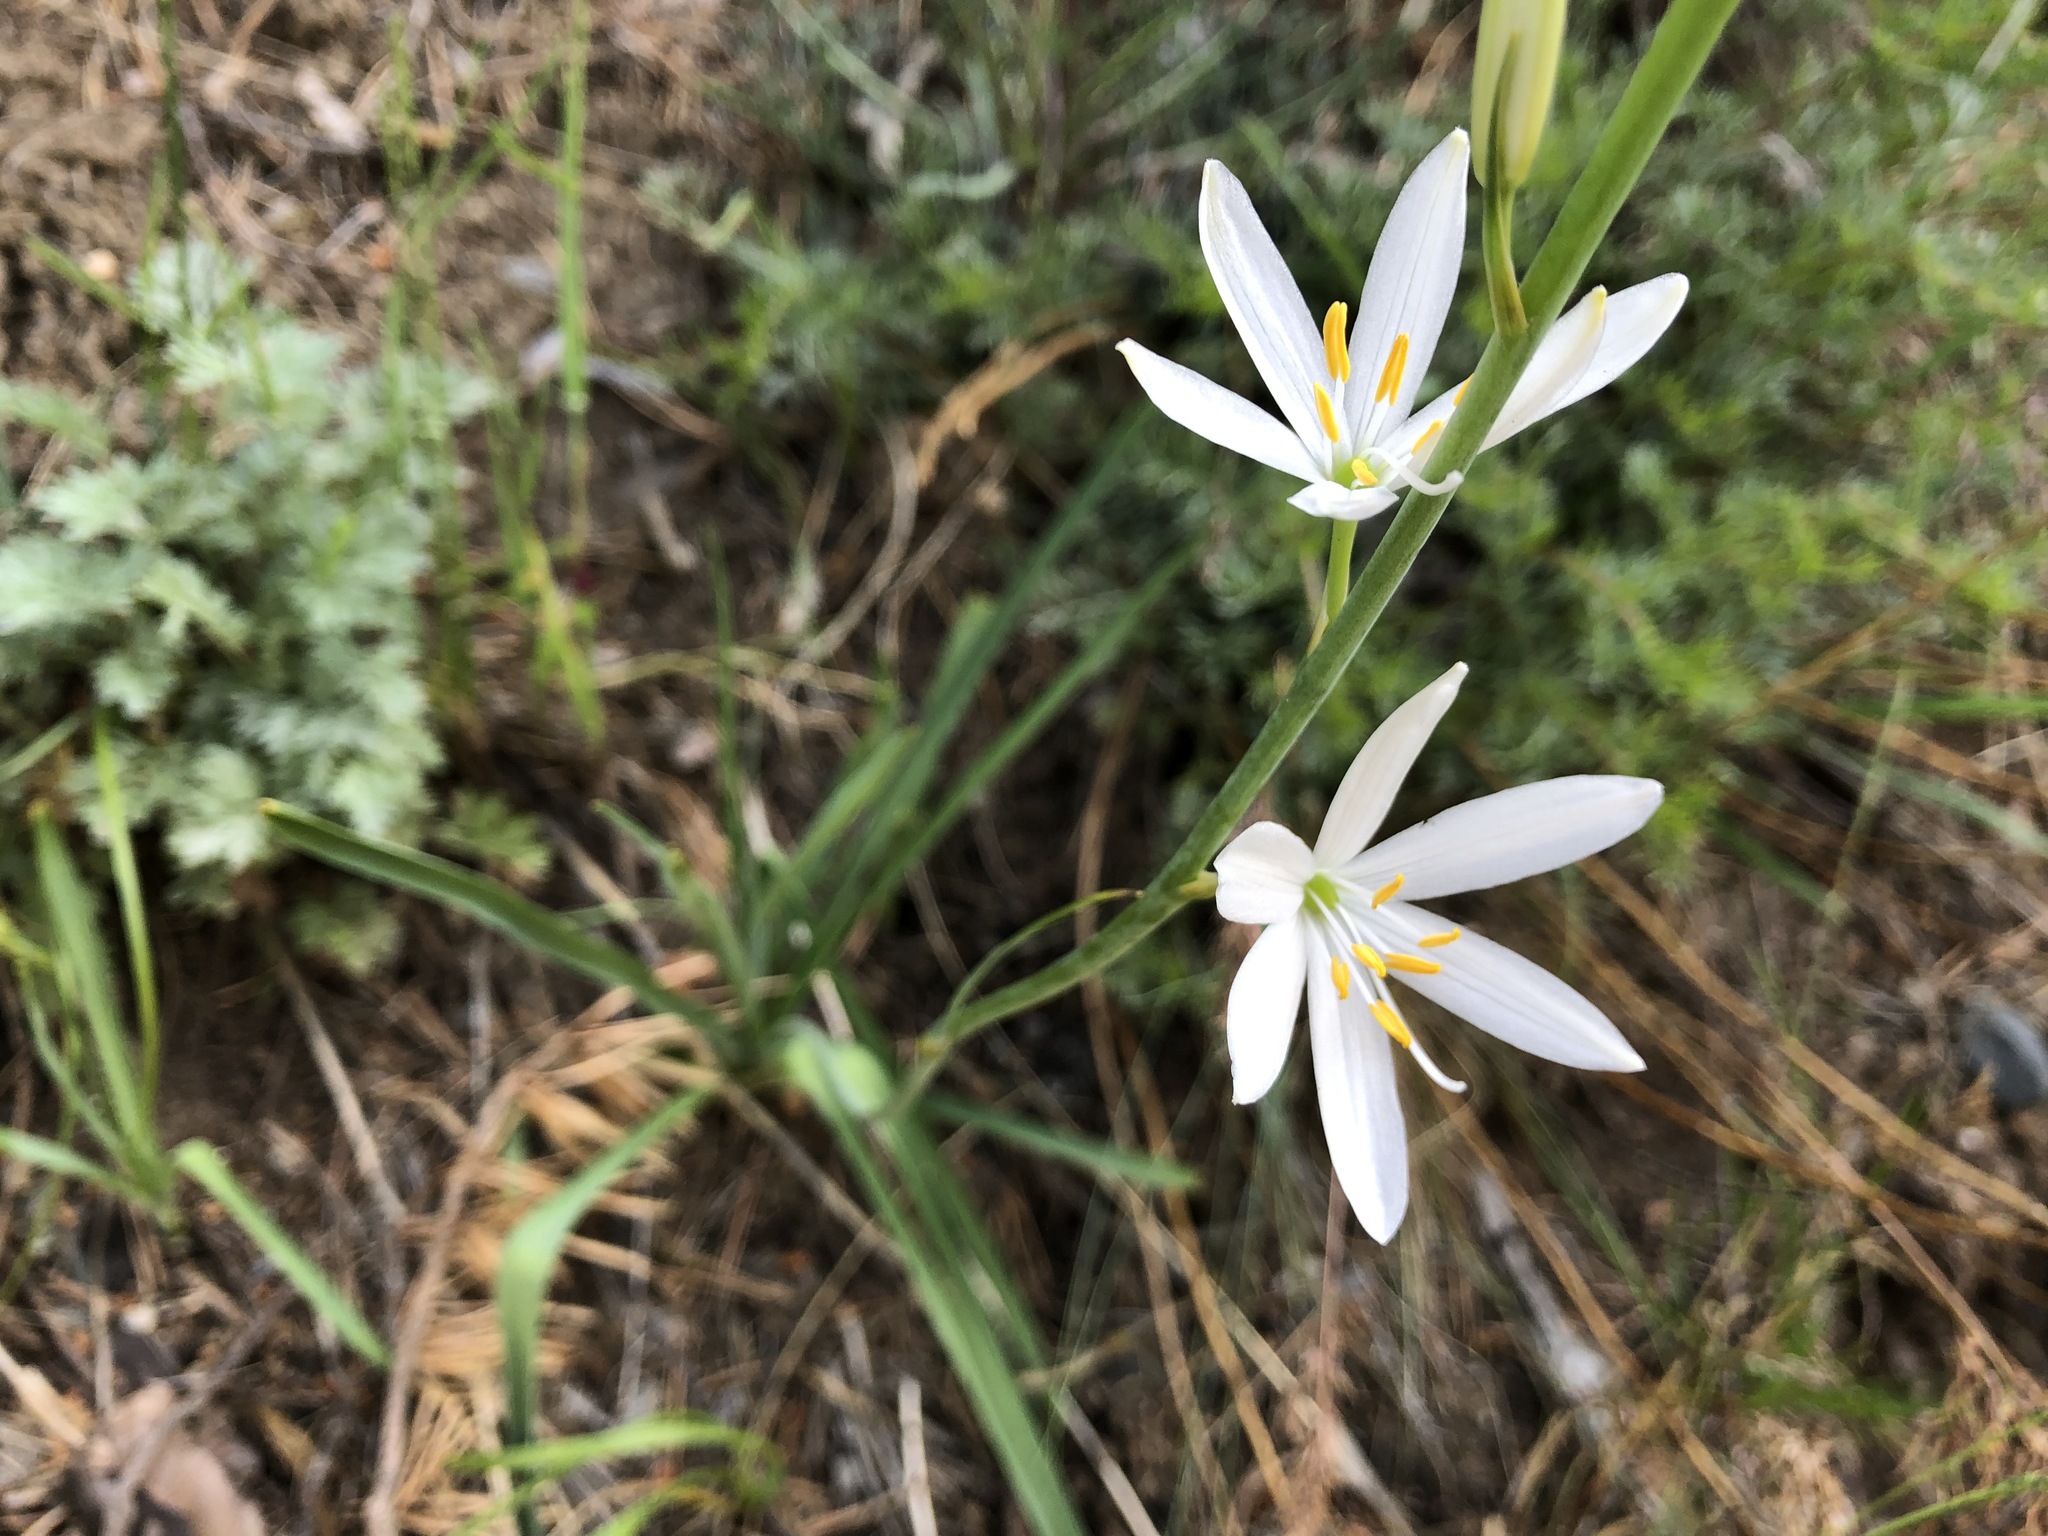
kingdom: Plantae
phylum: Tracheophyta
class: Liliopsida
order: Asparagales
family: Asparagaceae
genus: Anthericum
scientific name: Anthericum liliago
